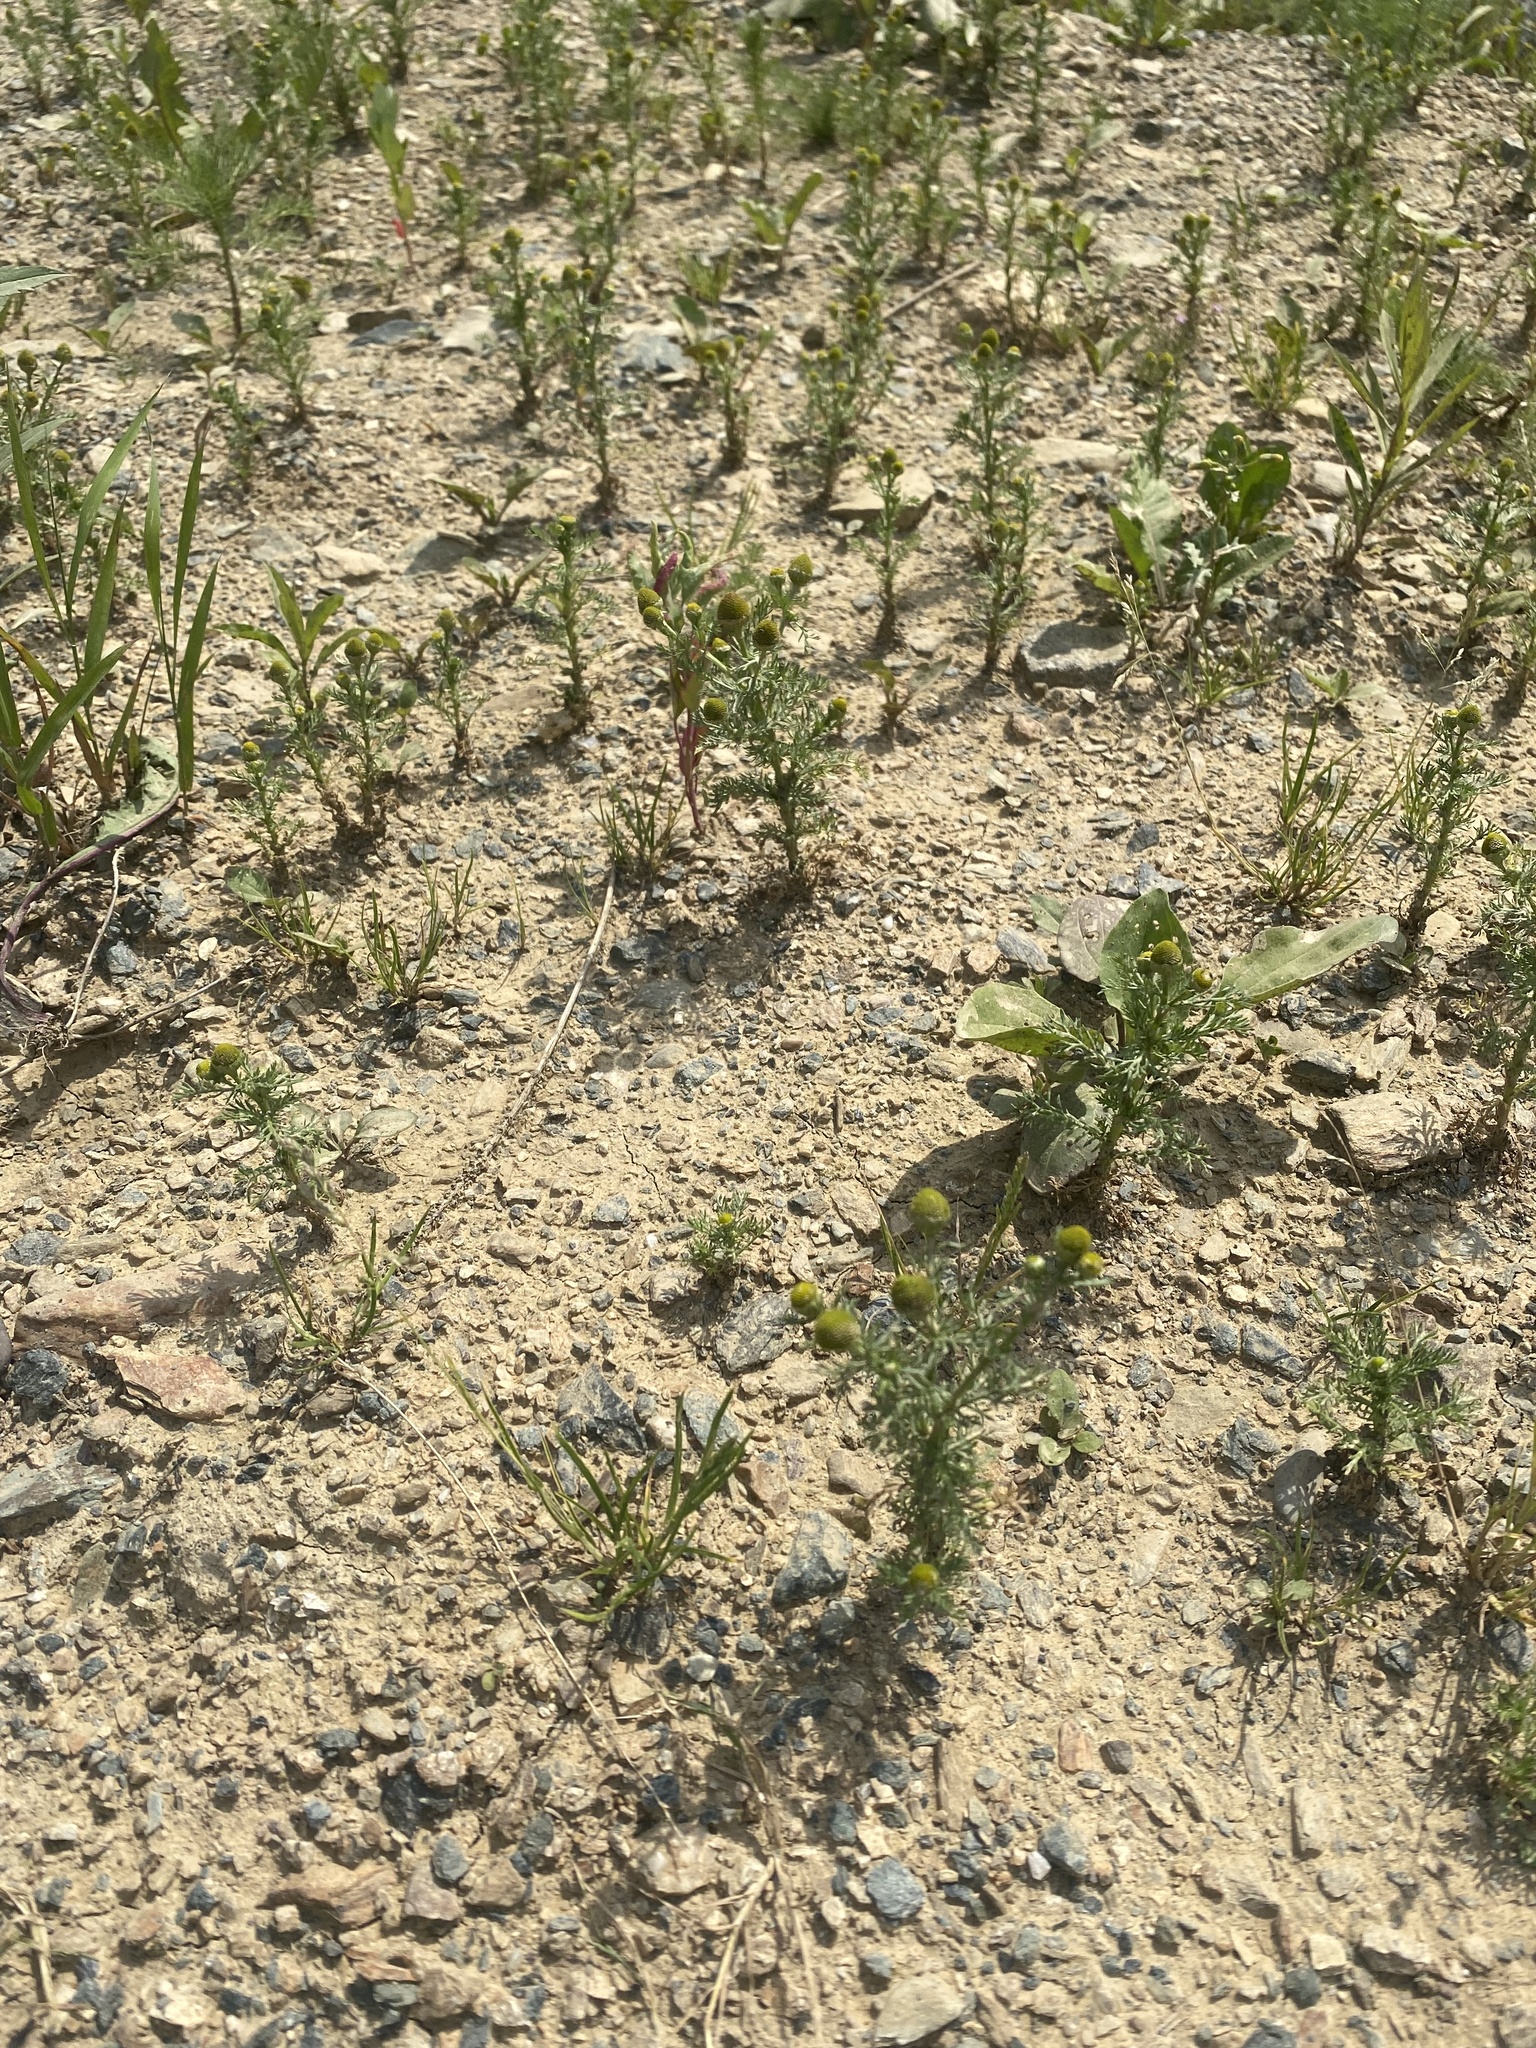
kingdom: Plantae
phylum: Tracheophyta
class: Magnoliopsida
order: Asterales
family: Asteraceae
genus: Matricaria
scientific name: Matricaria discoidea
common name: Disc mayweed
